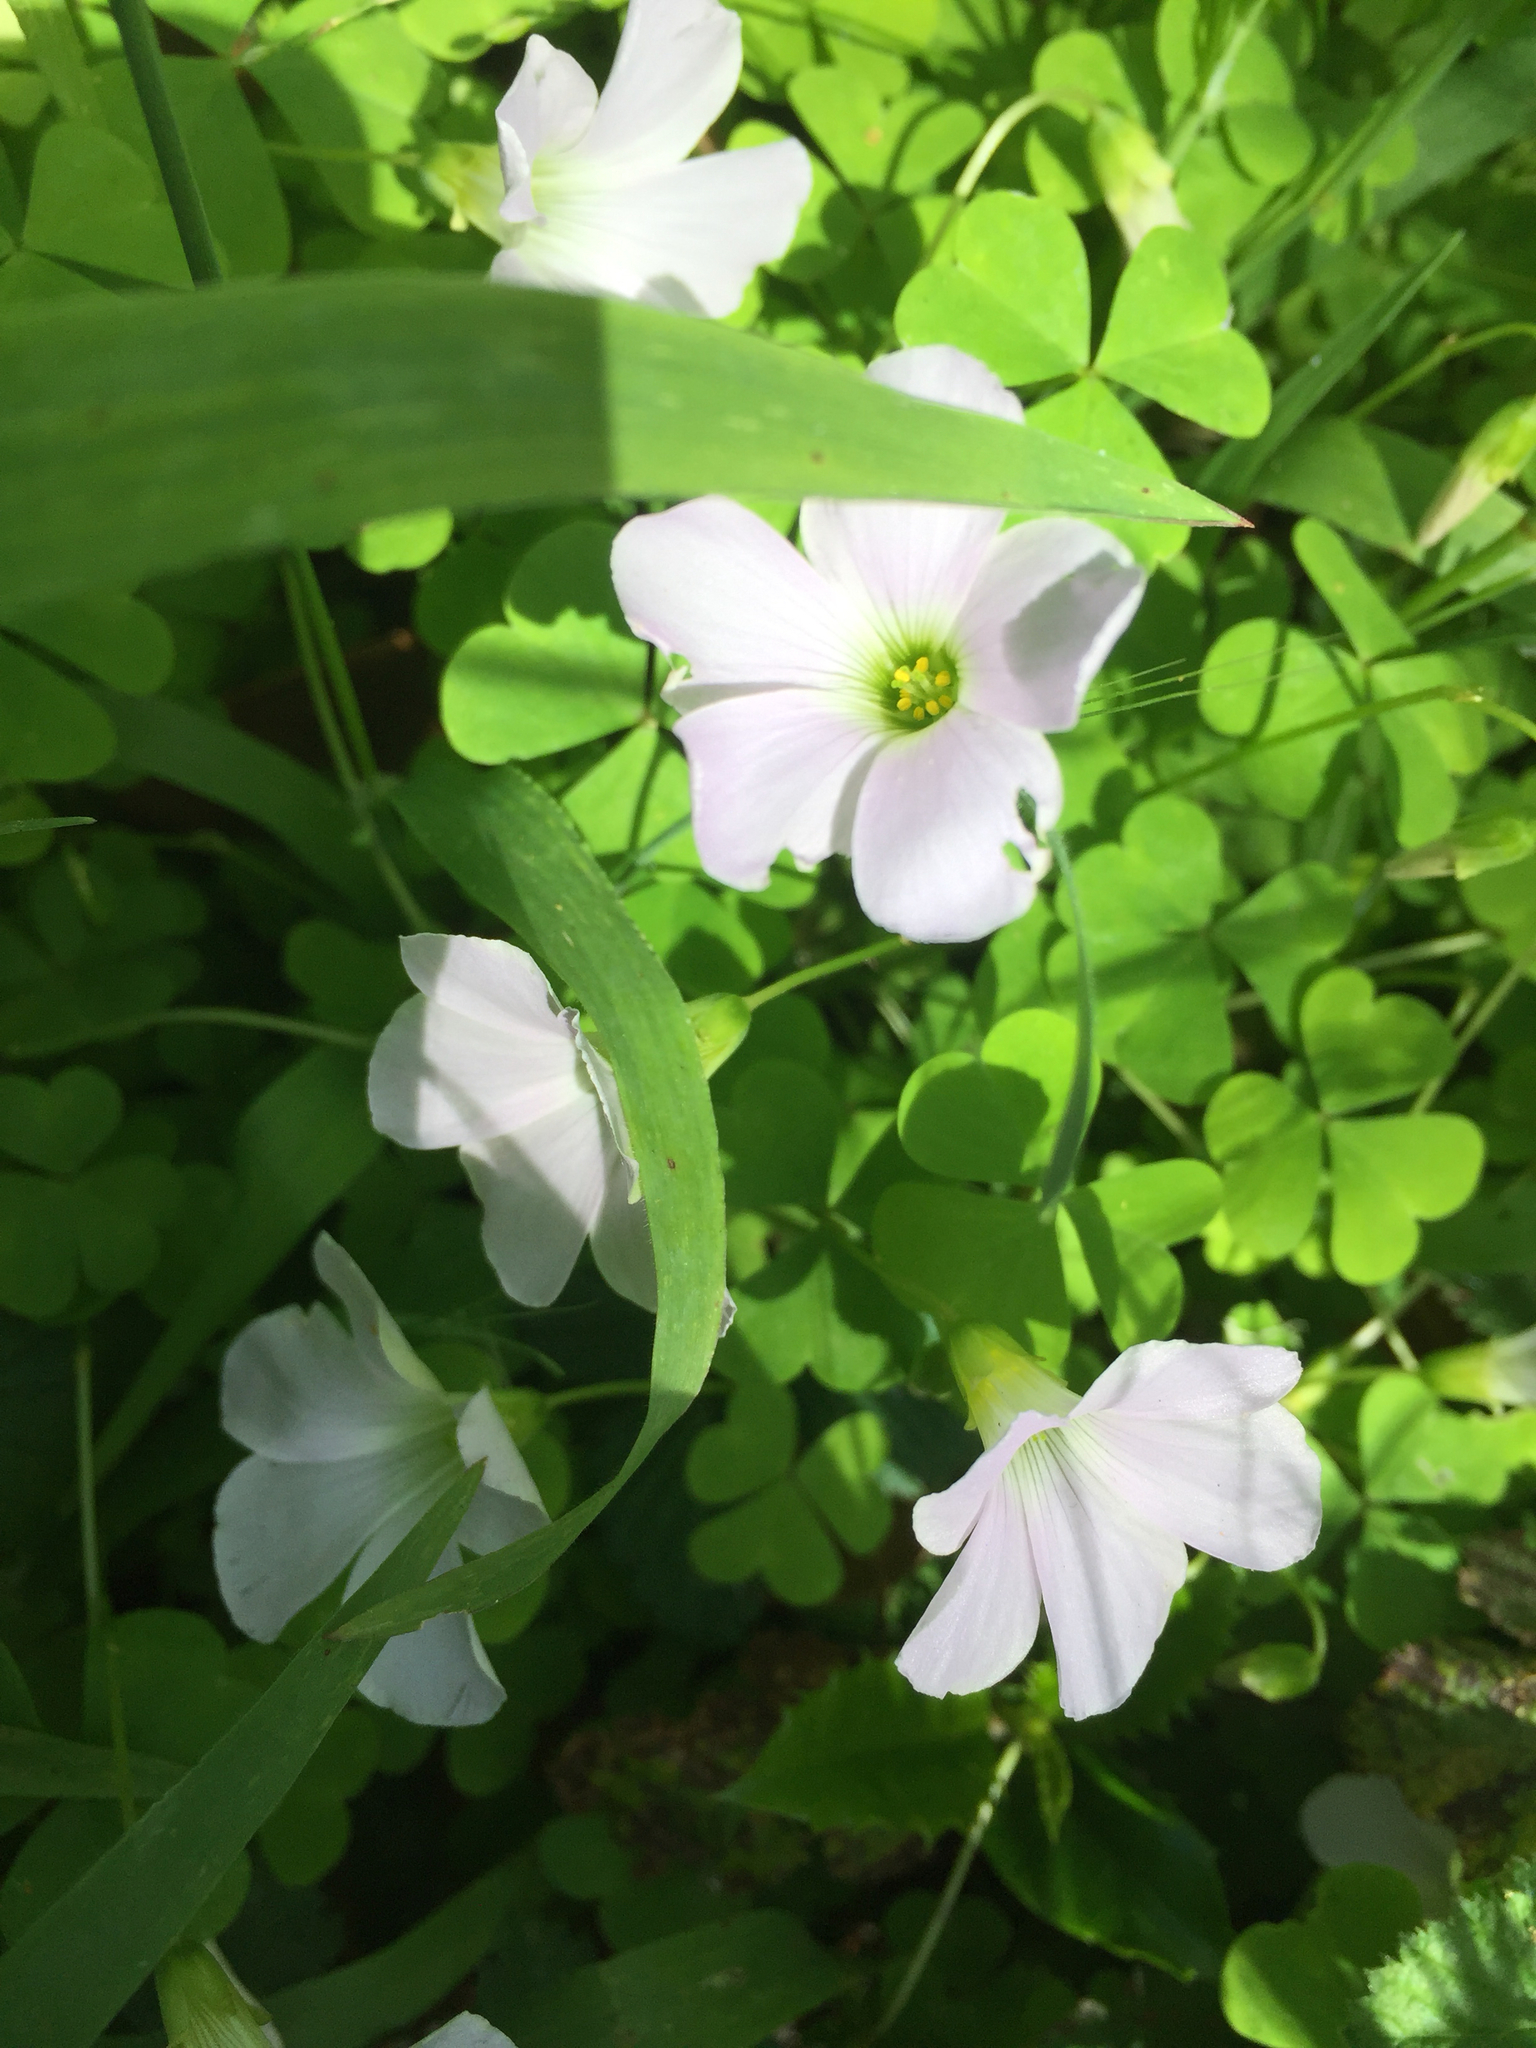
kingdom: Plantae
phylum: Tracheophyta
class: Magnoliopsida
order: Oxalidales
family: Oxalidaceae
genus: Oxalis
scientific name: Oxalis incarnata
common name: Pale pink-sorrel
